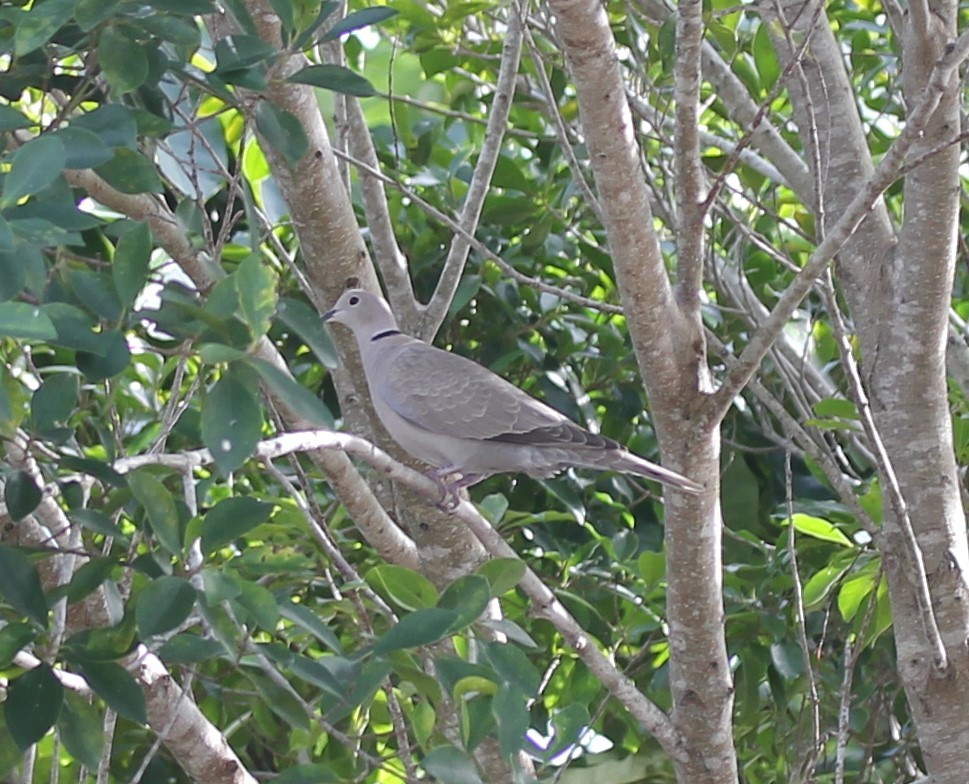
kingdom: Animalia
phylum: Chordata
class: Aves
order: Columbiformes
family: Columbidae
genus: Streptopelia
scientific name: Streptopelia decaocto
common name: Eurasian collared dove
